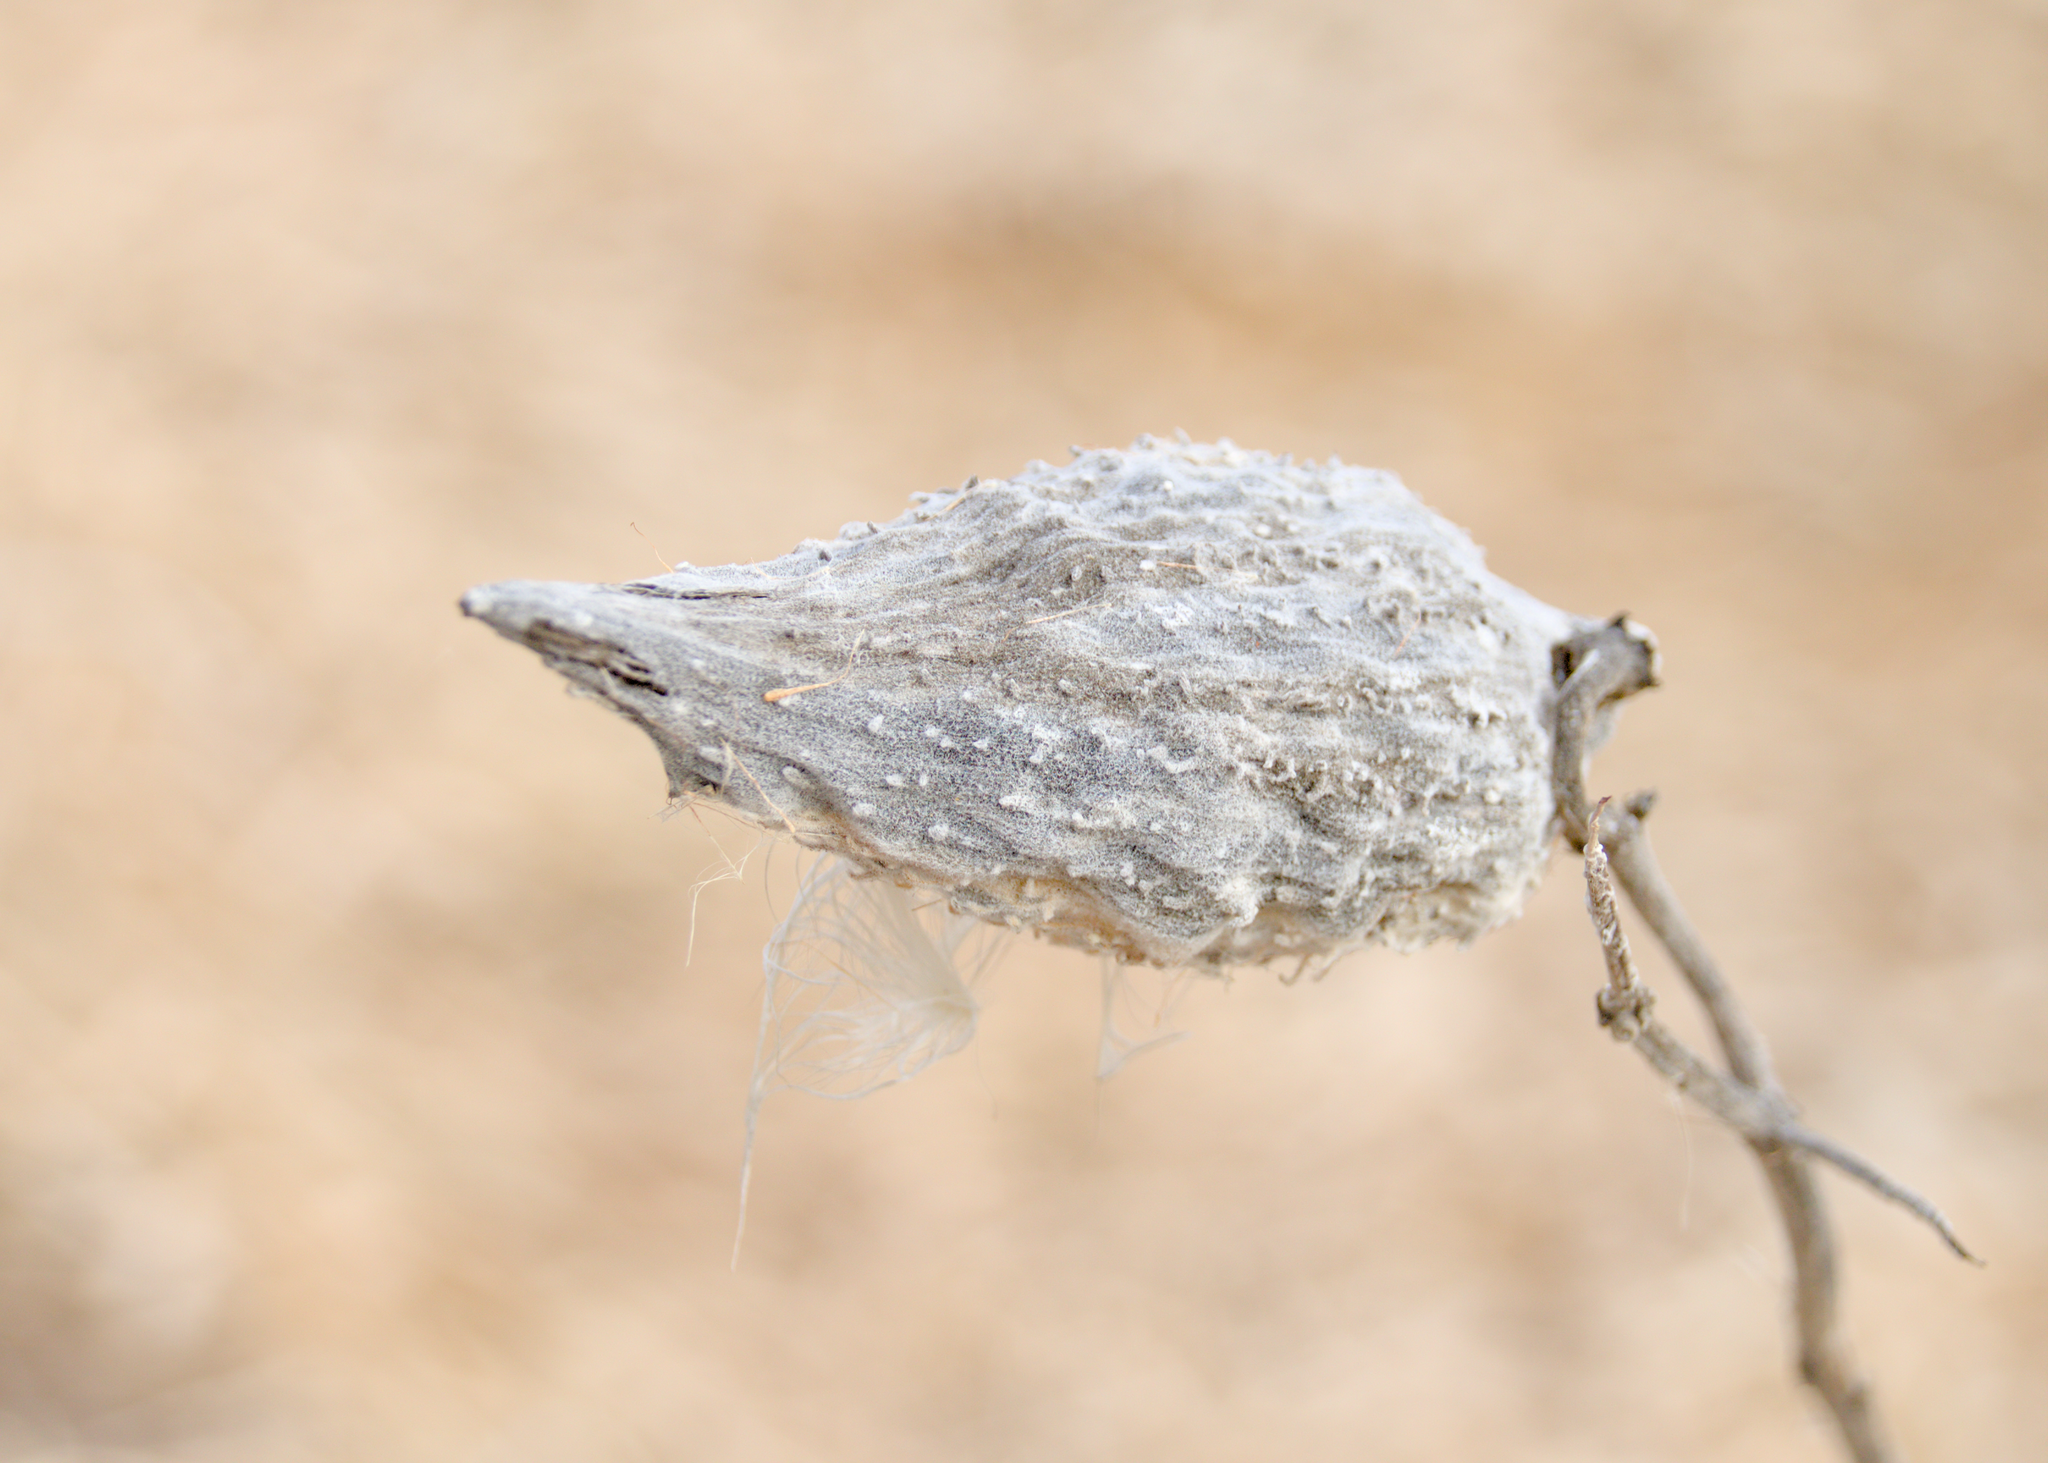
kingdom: Plantae
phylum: Tracheophyta
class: Magnoliopsida
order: Gentianales
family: Apocynaceae
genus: Asclepias
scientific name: Asclepias syriaca
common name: Common milkweed
